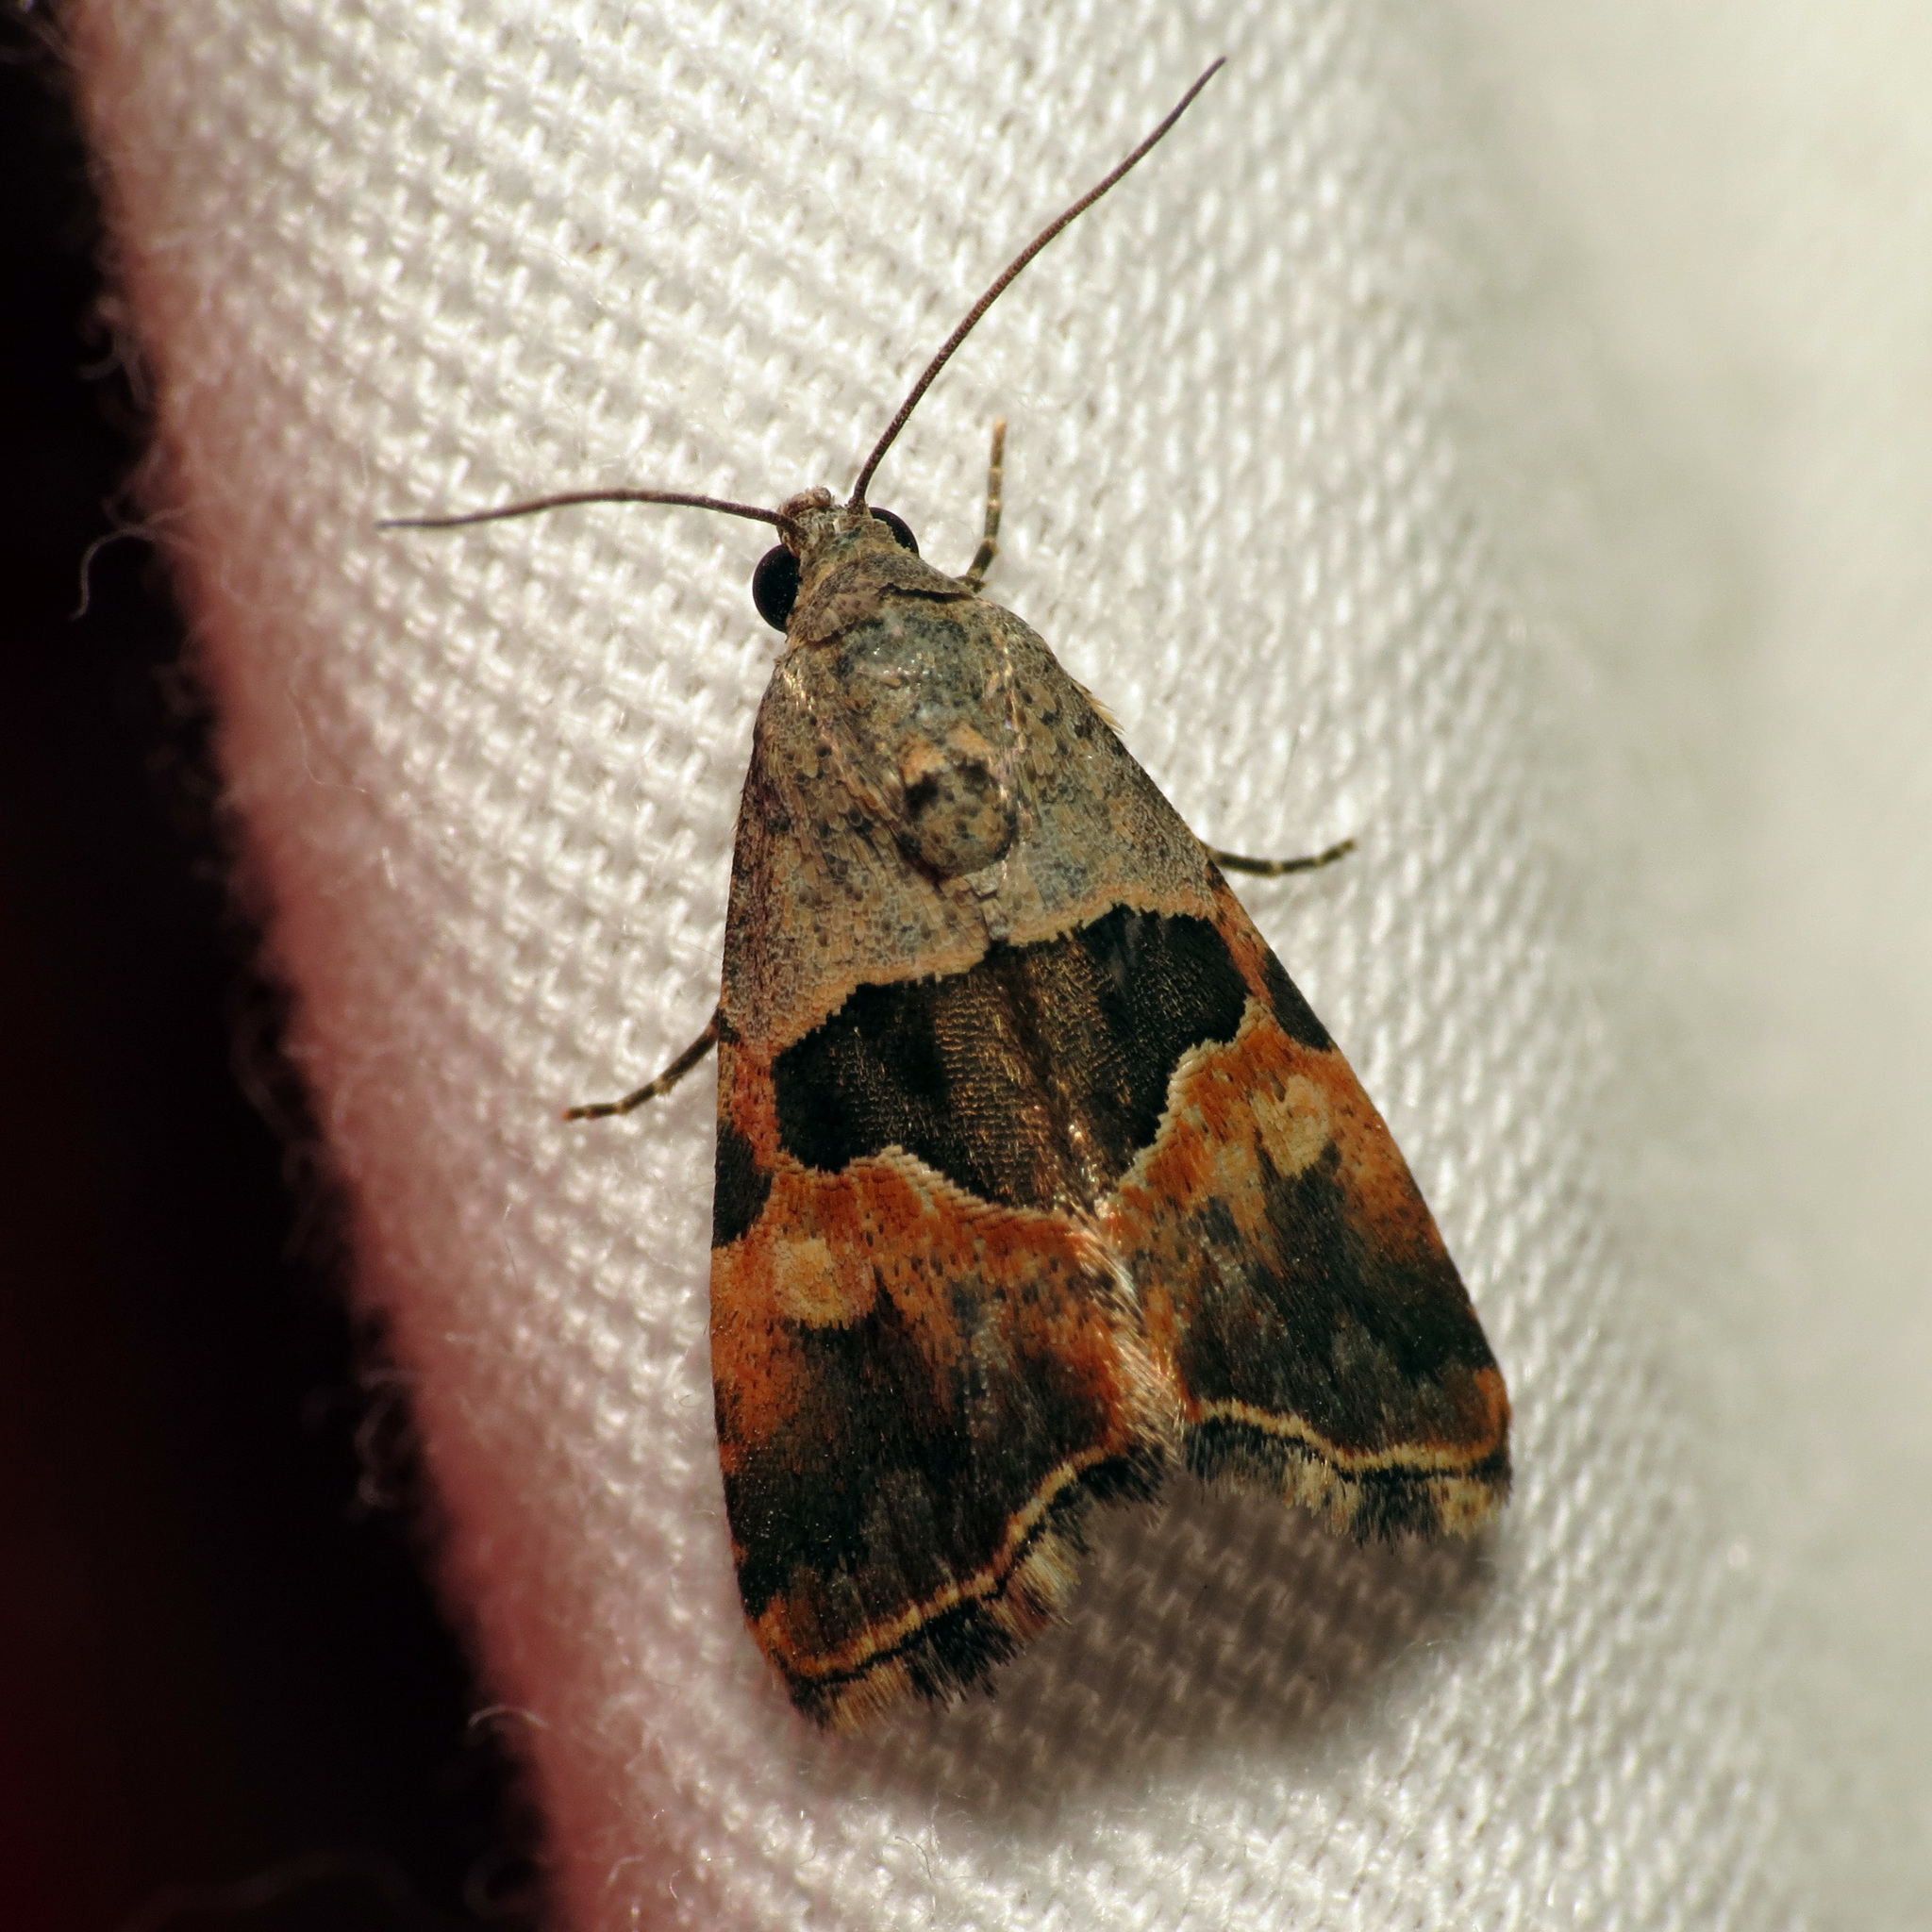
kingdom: Animalia
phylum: Arthropoda
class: Insecta
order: Lepidoptera
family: Noctuidae
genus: Cobubatha
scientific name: Cobubatha lixiva
